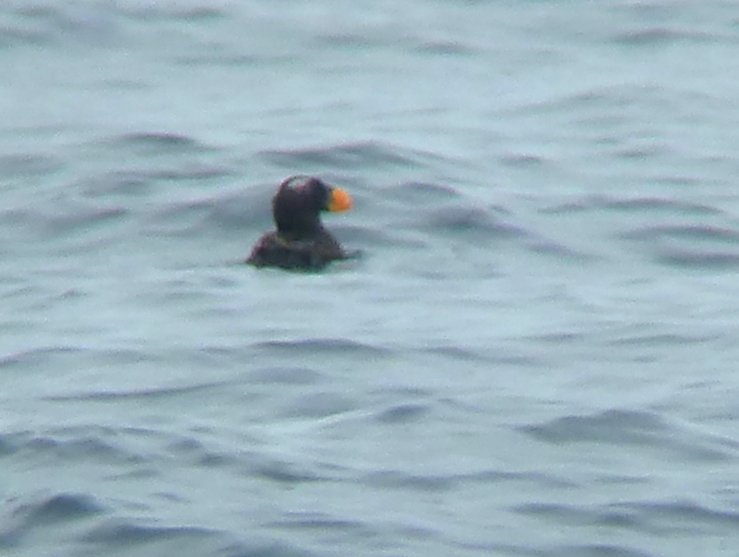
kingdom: Animalia
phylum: Chordata
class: Aves
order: Charadriiformes
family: Alcidae
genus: Fratercula
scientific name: Fratercula cirrhata
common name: Tufted puffin
